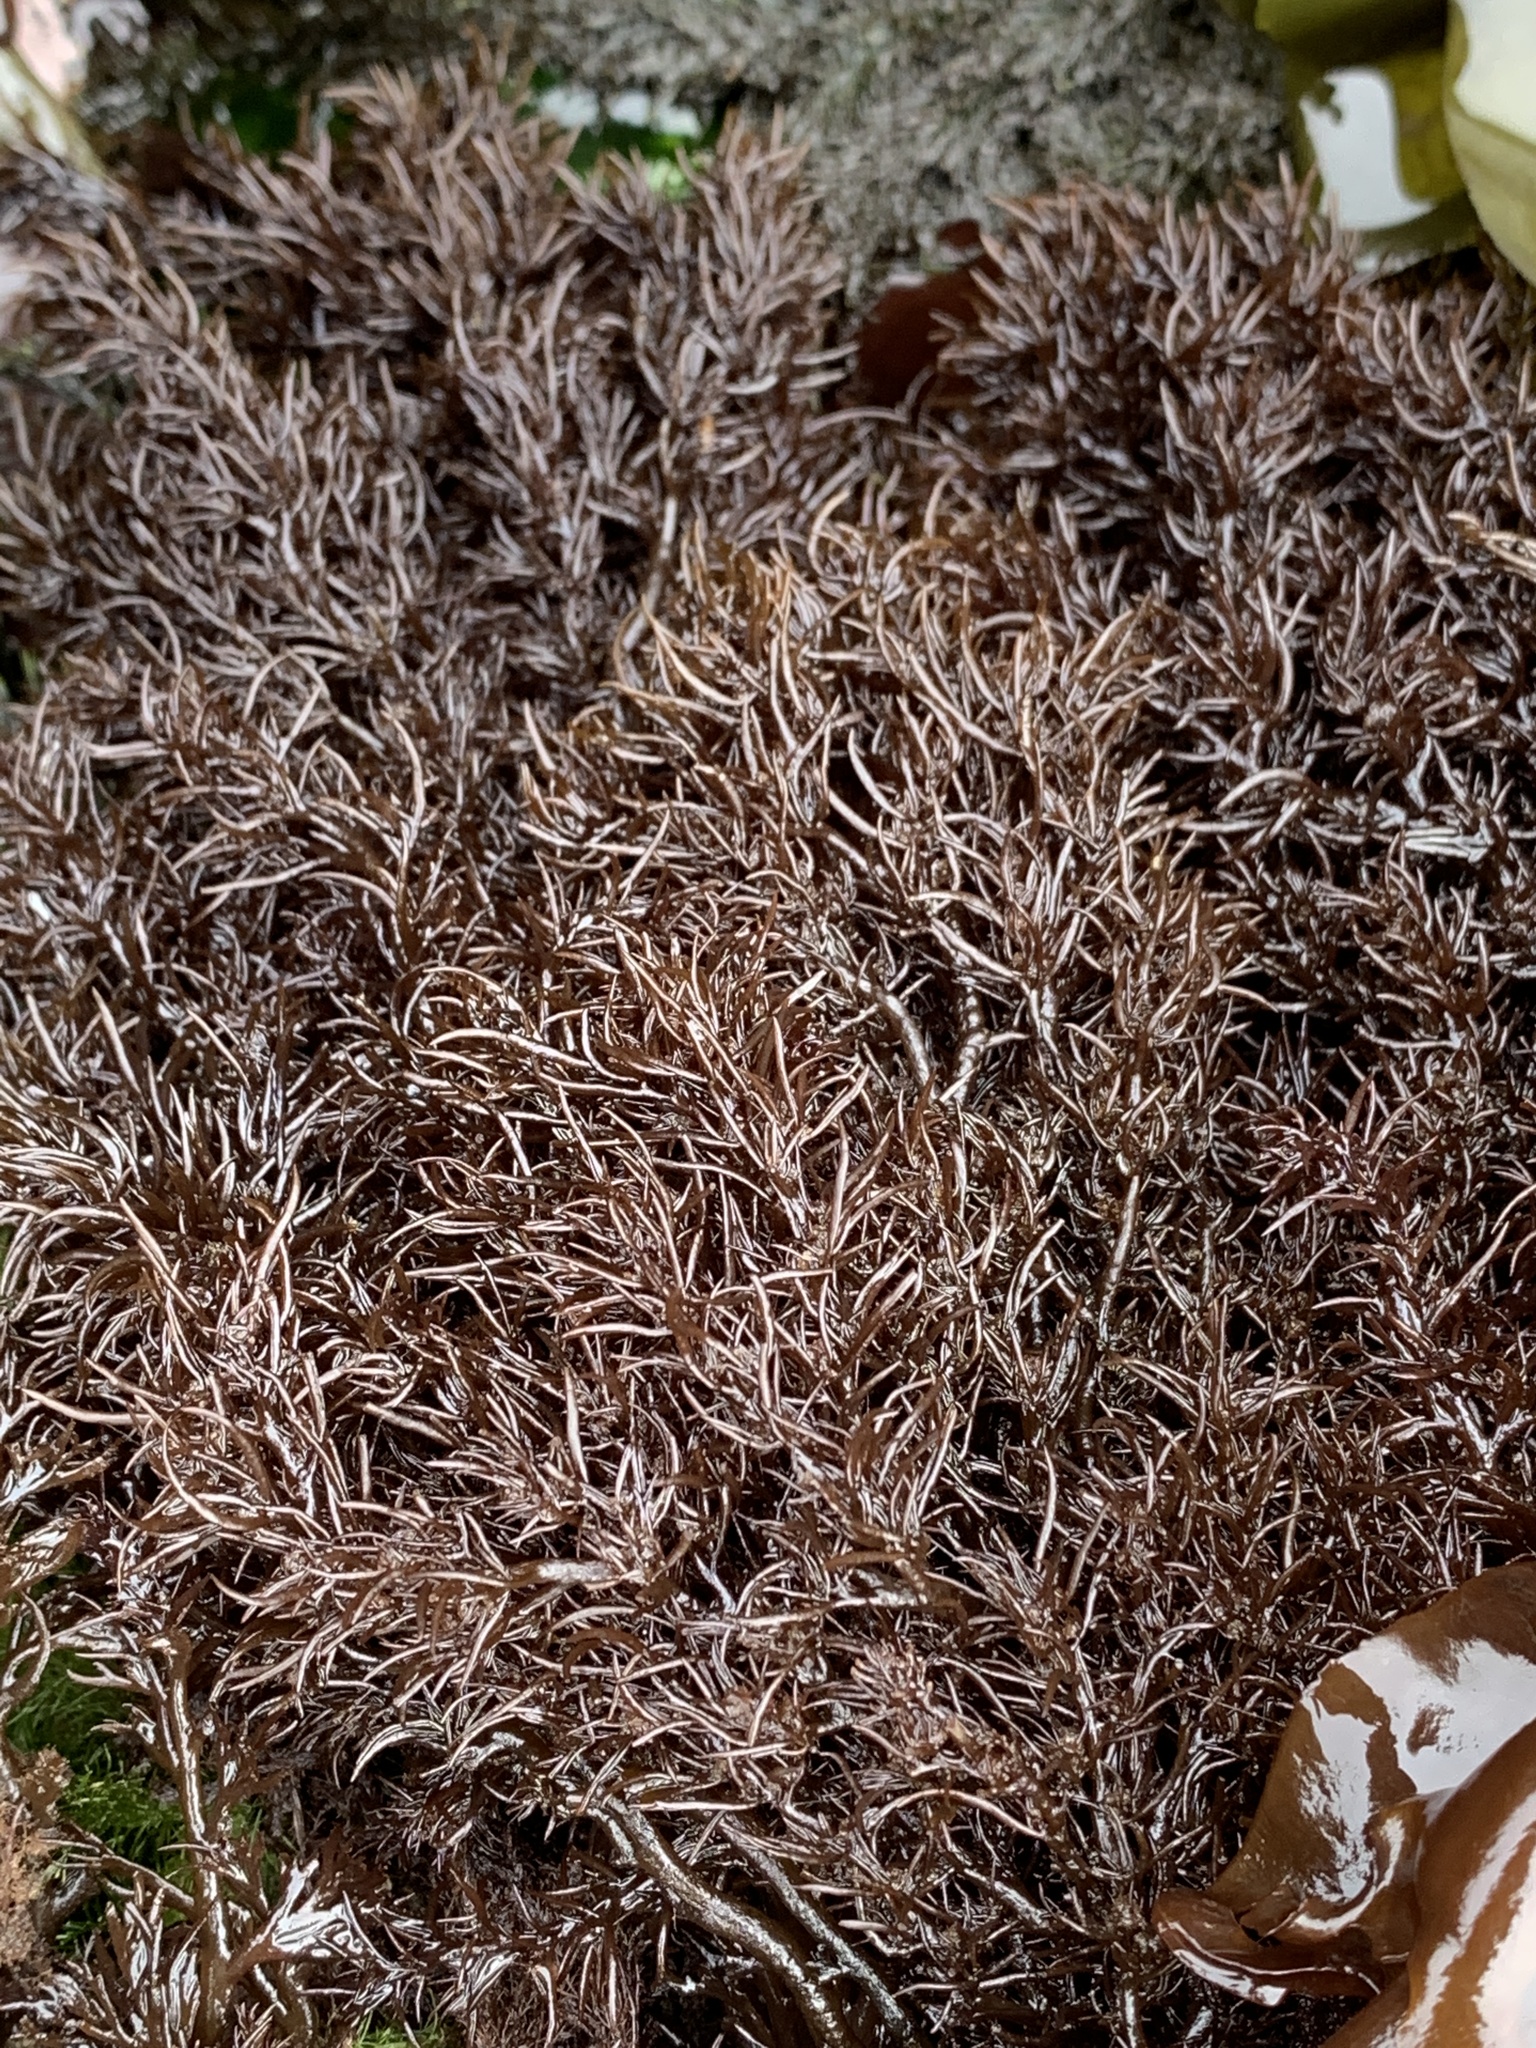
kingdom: Plantae
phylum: Rhodophyta
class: Florideophyceae
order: Ceramiales
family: Rhodomelaceae
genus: Neorhodomela
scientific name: Neorhodomela larix
